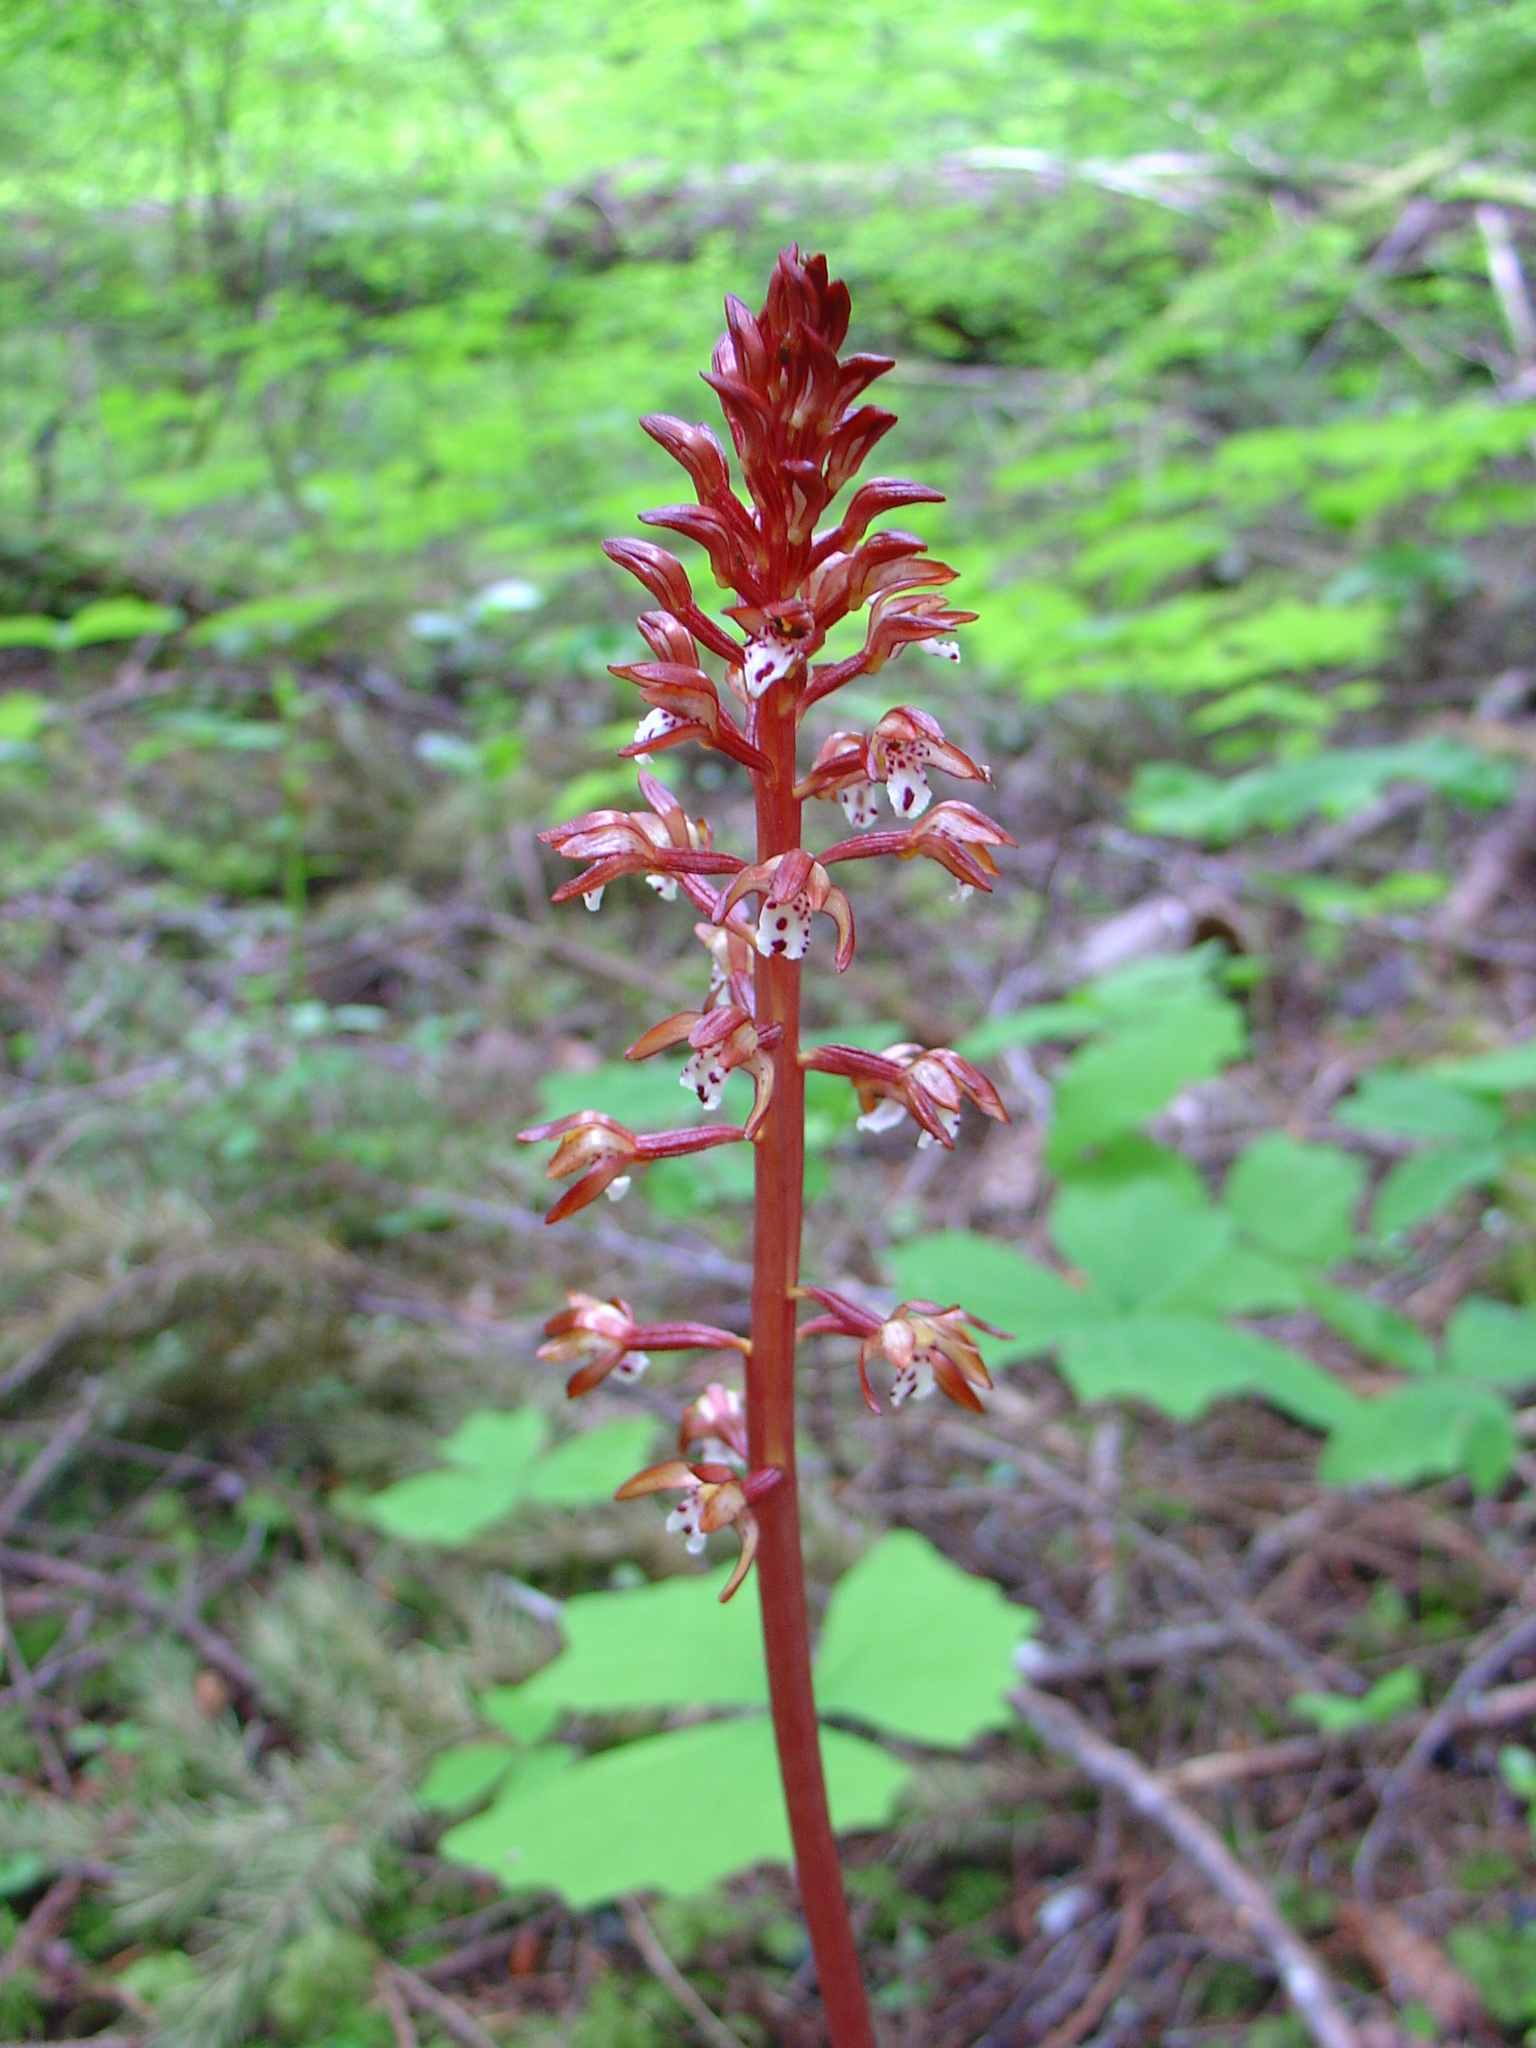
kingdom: Plantae
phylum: Tracheophyta
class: Liliopsida
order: Asparagales
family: Orchidaceae
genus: Corallorhiza
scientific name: Corallorhiza maculata
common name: Spotted coralroot
